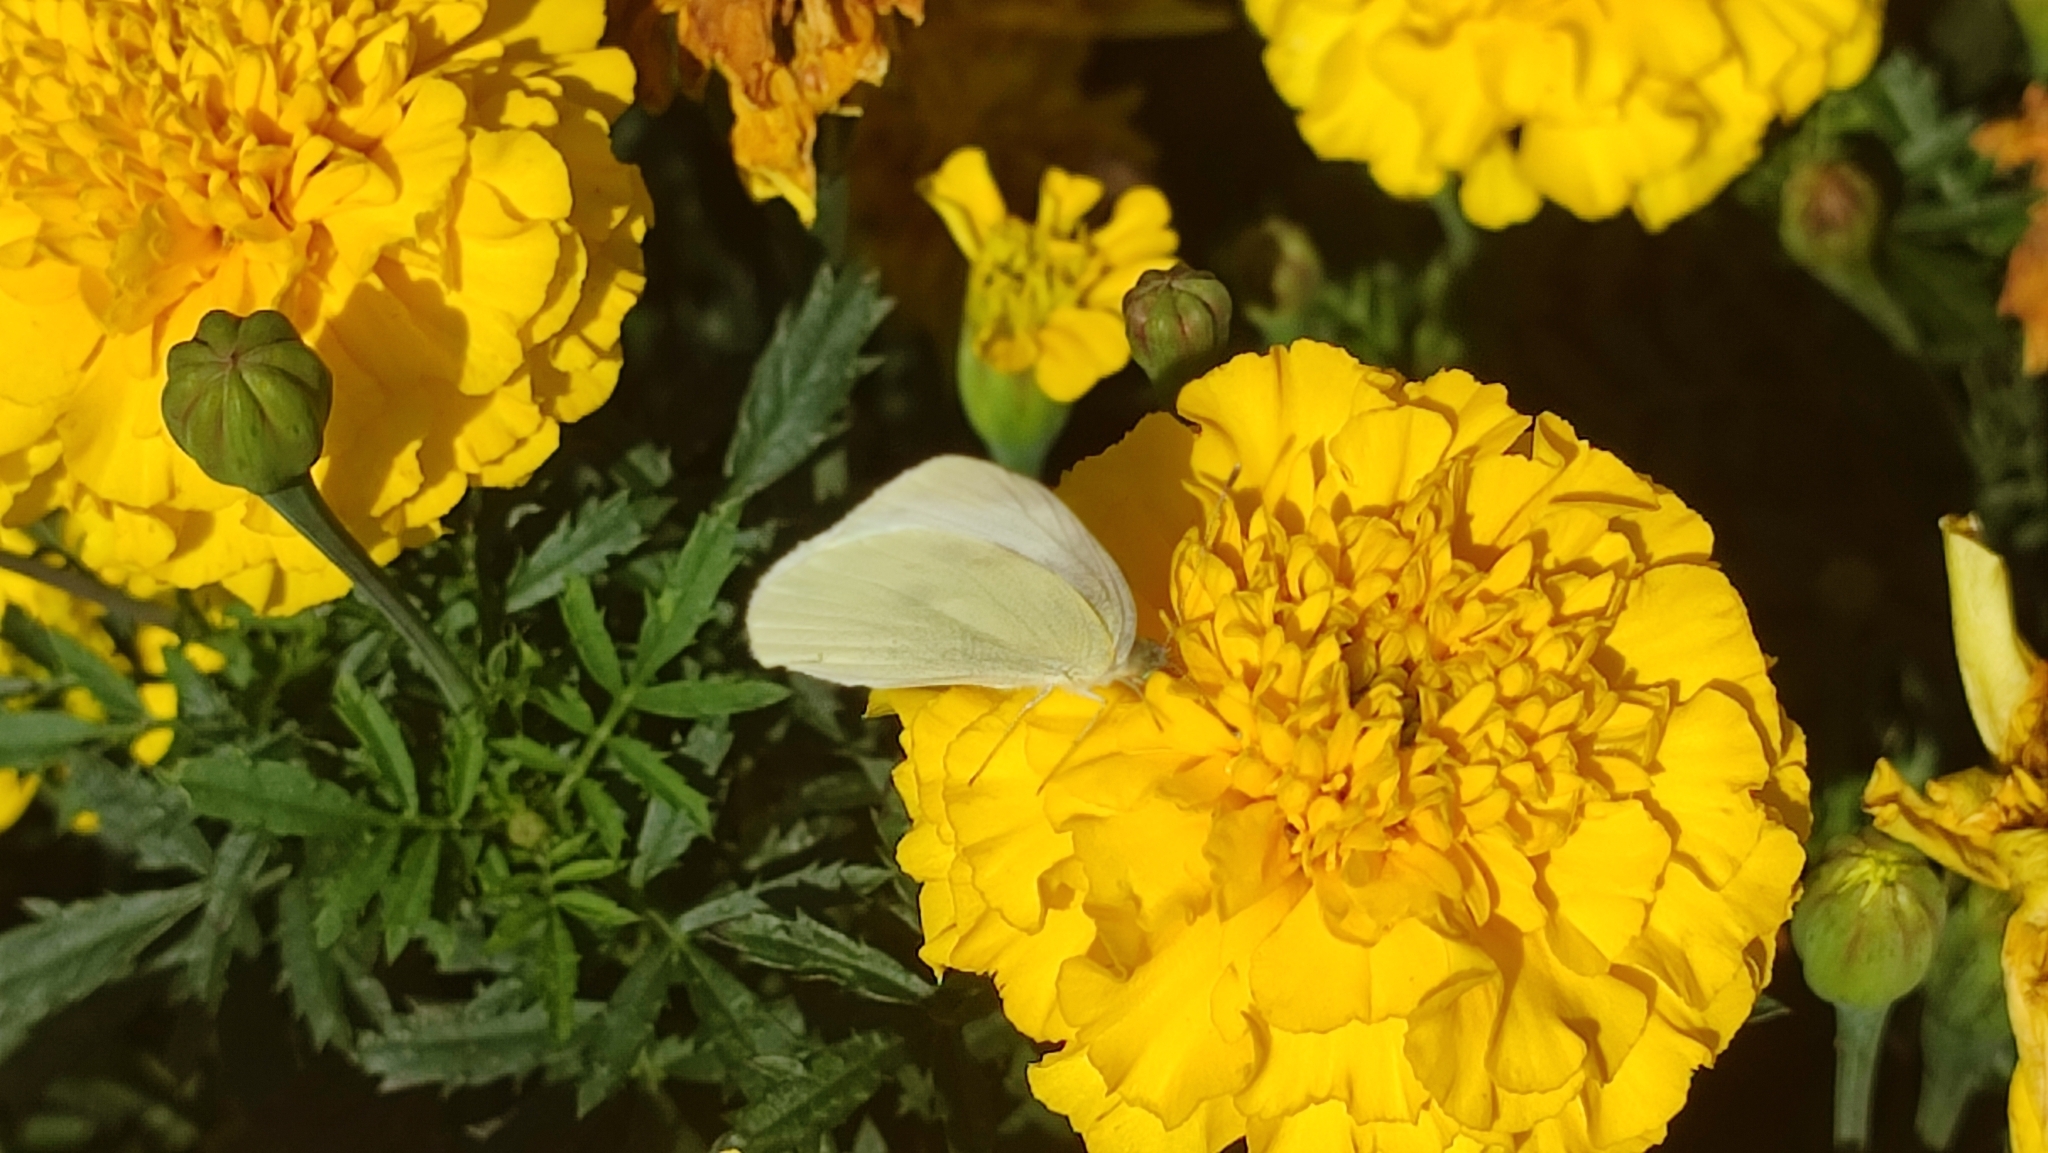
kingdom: Animalia
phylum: Arthropoda
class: Insecta
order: Lepidoptera
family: Pieridae
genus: Pieris
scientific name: Pieris rapae
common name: Small white
